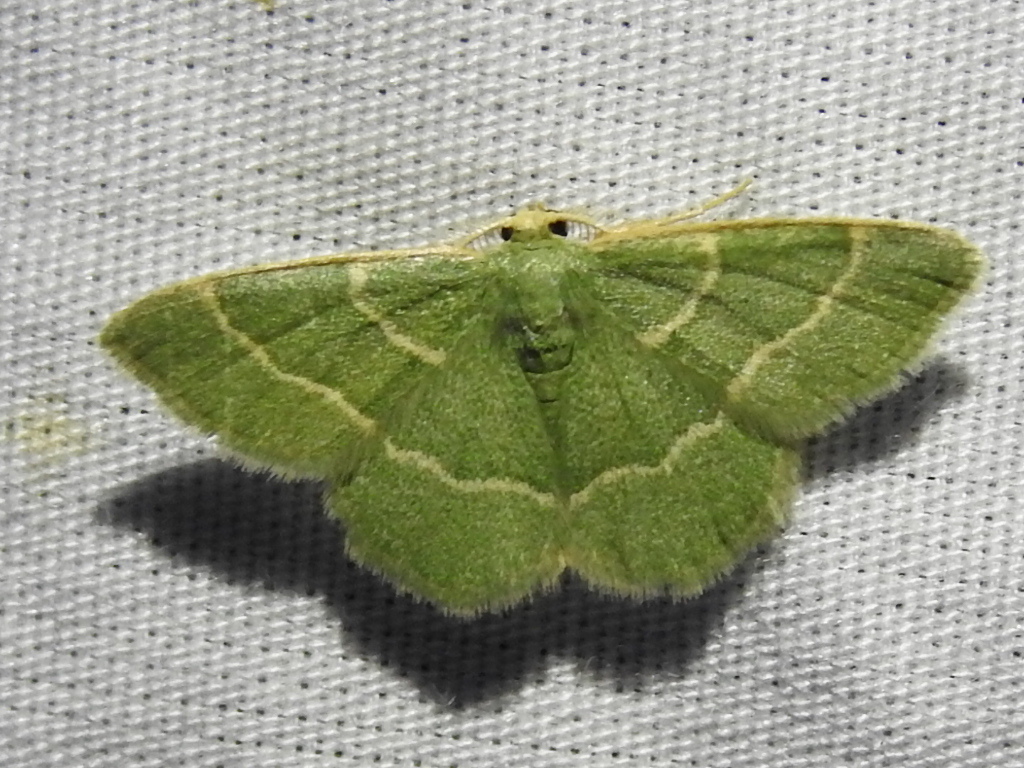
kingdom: Animalia
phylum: Arthropoda
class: Insecta
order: Lepidoptera
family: Geometridae
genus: Chlorochlamys
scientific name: Chlorochlamys phyllinaria
